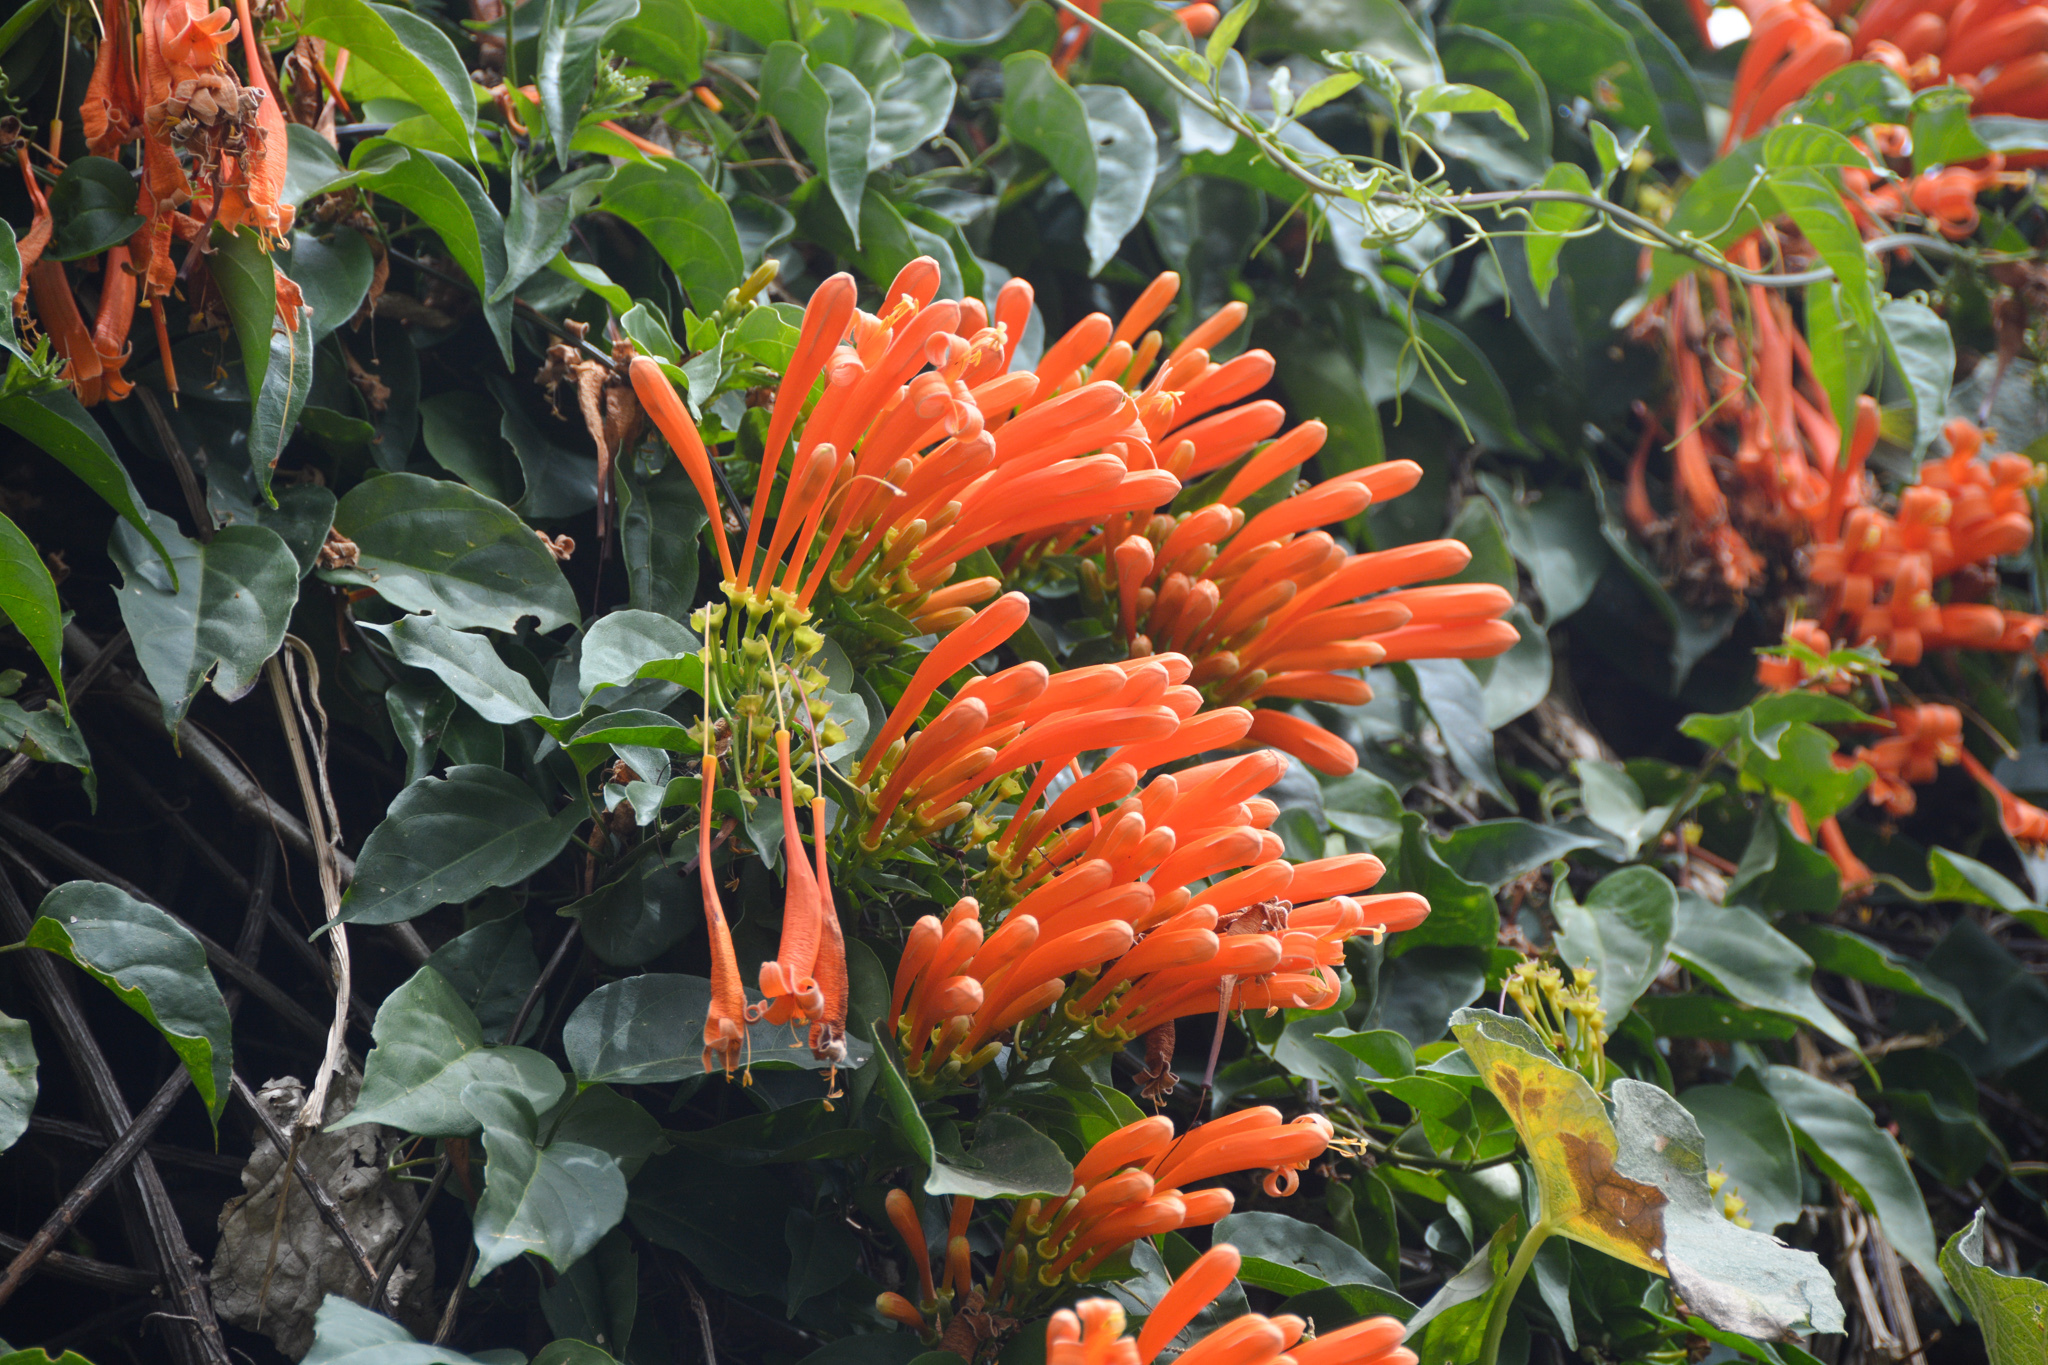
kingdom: Plantae
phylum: Tracheophyta
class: Magnoliopsida
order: Lamiales
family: Bignoniaceae
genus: Pyrostegia
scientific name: Pyrostegia venusta
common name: Flamevine
